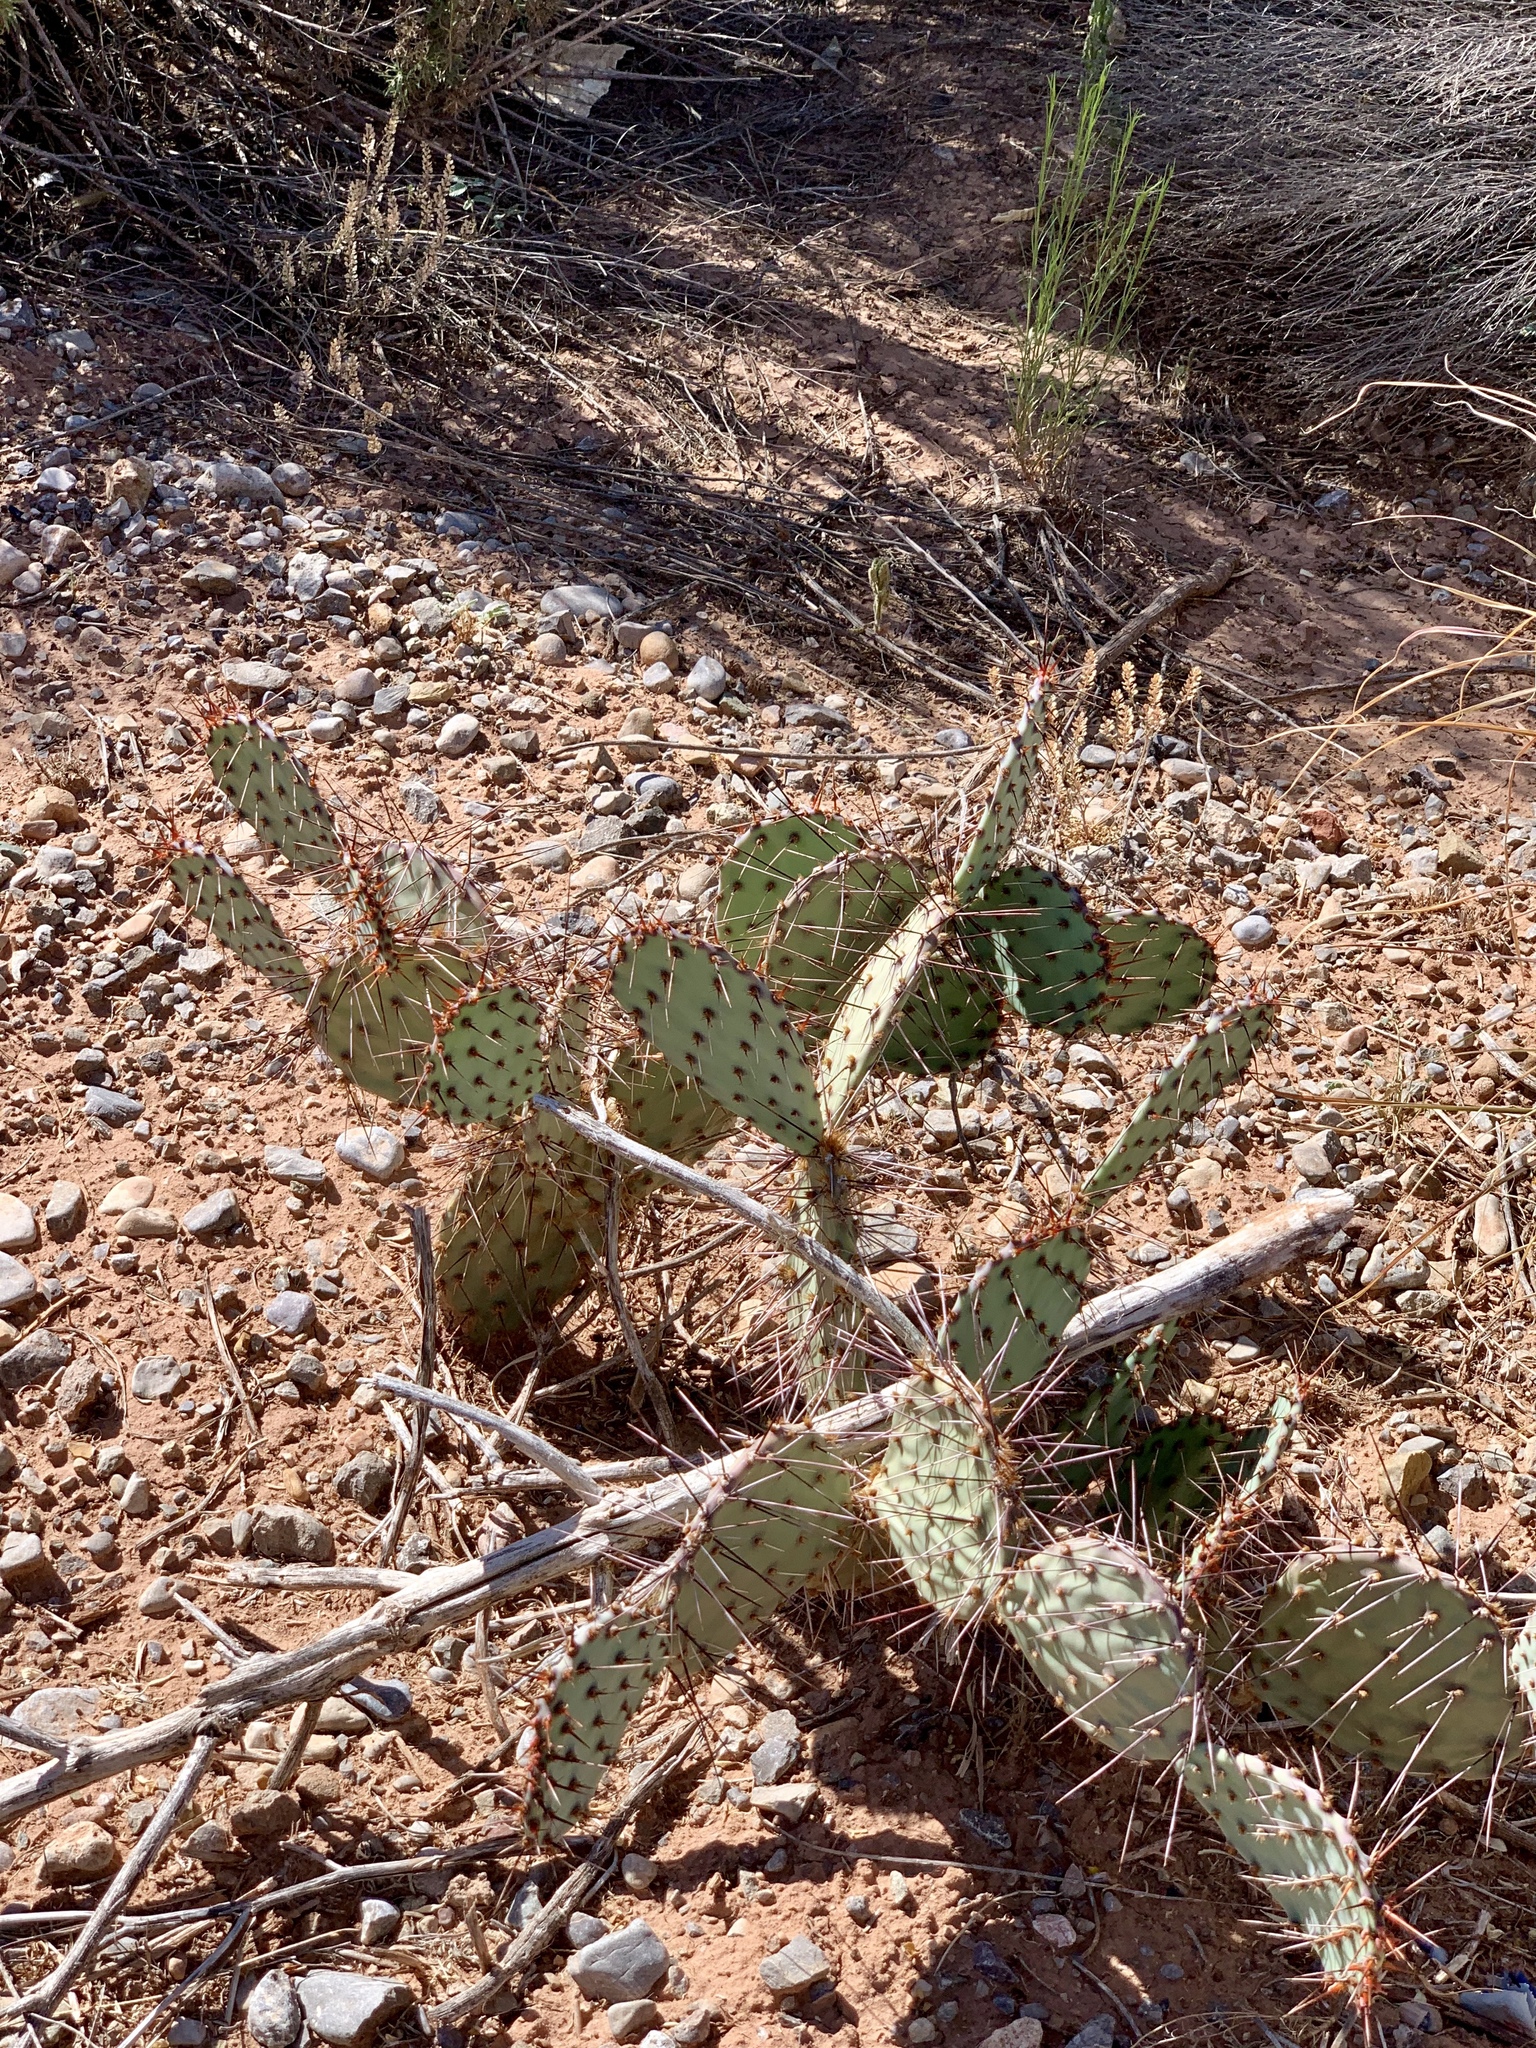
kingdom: Plantae
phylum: Tracheophyta
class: Magnoliopsida
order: Caryophyllales
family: Cactaceae
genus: Opuntia
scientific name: Opuntia phaeacantha
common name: New mexico prickly-pear
